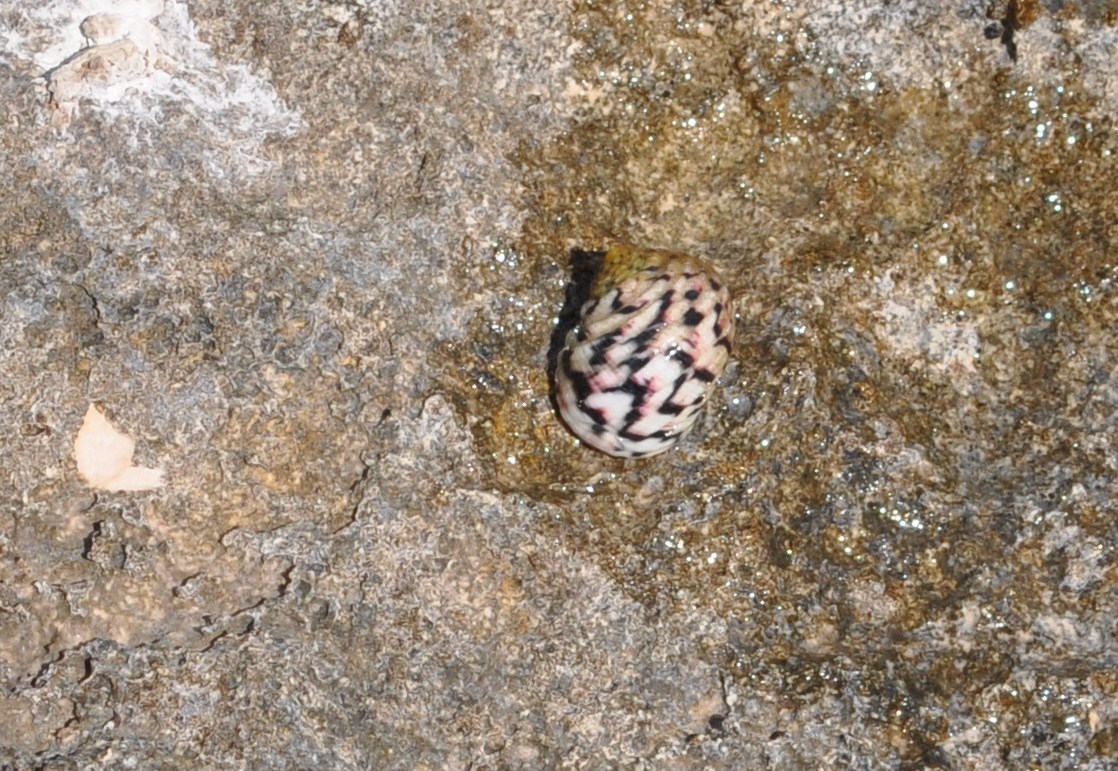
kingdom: Animalia
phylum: Mollusca
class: Gastropoda
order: Cycloneritida
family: Neritidae
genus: Nerita
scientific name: Nerita versicolor
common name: Four-tooth nerite
